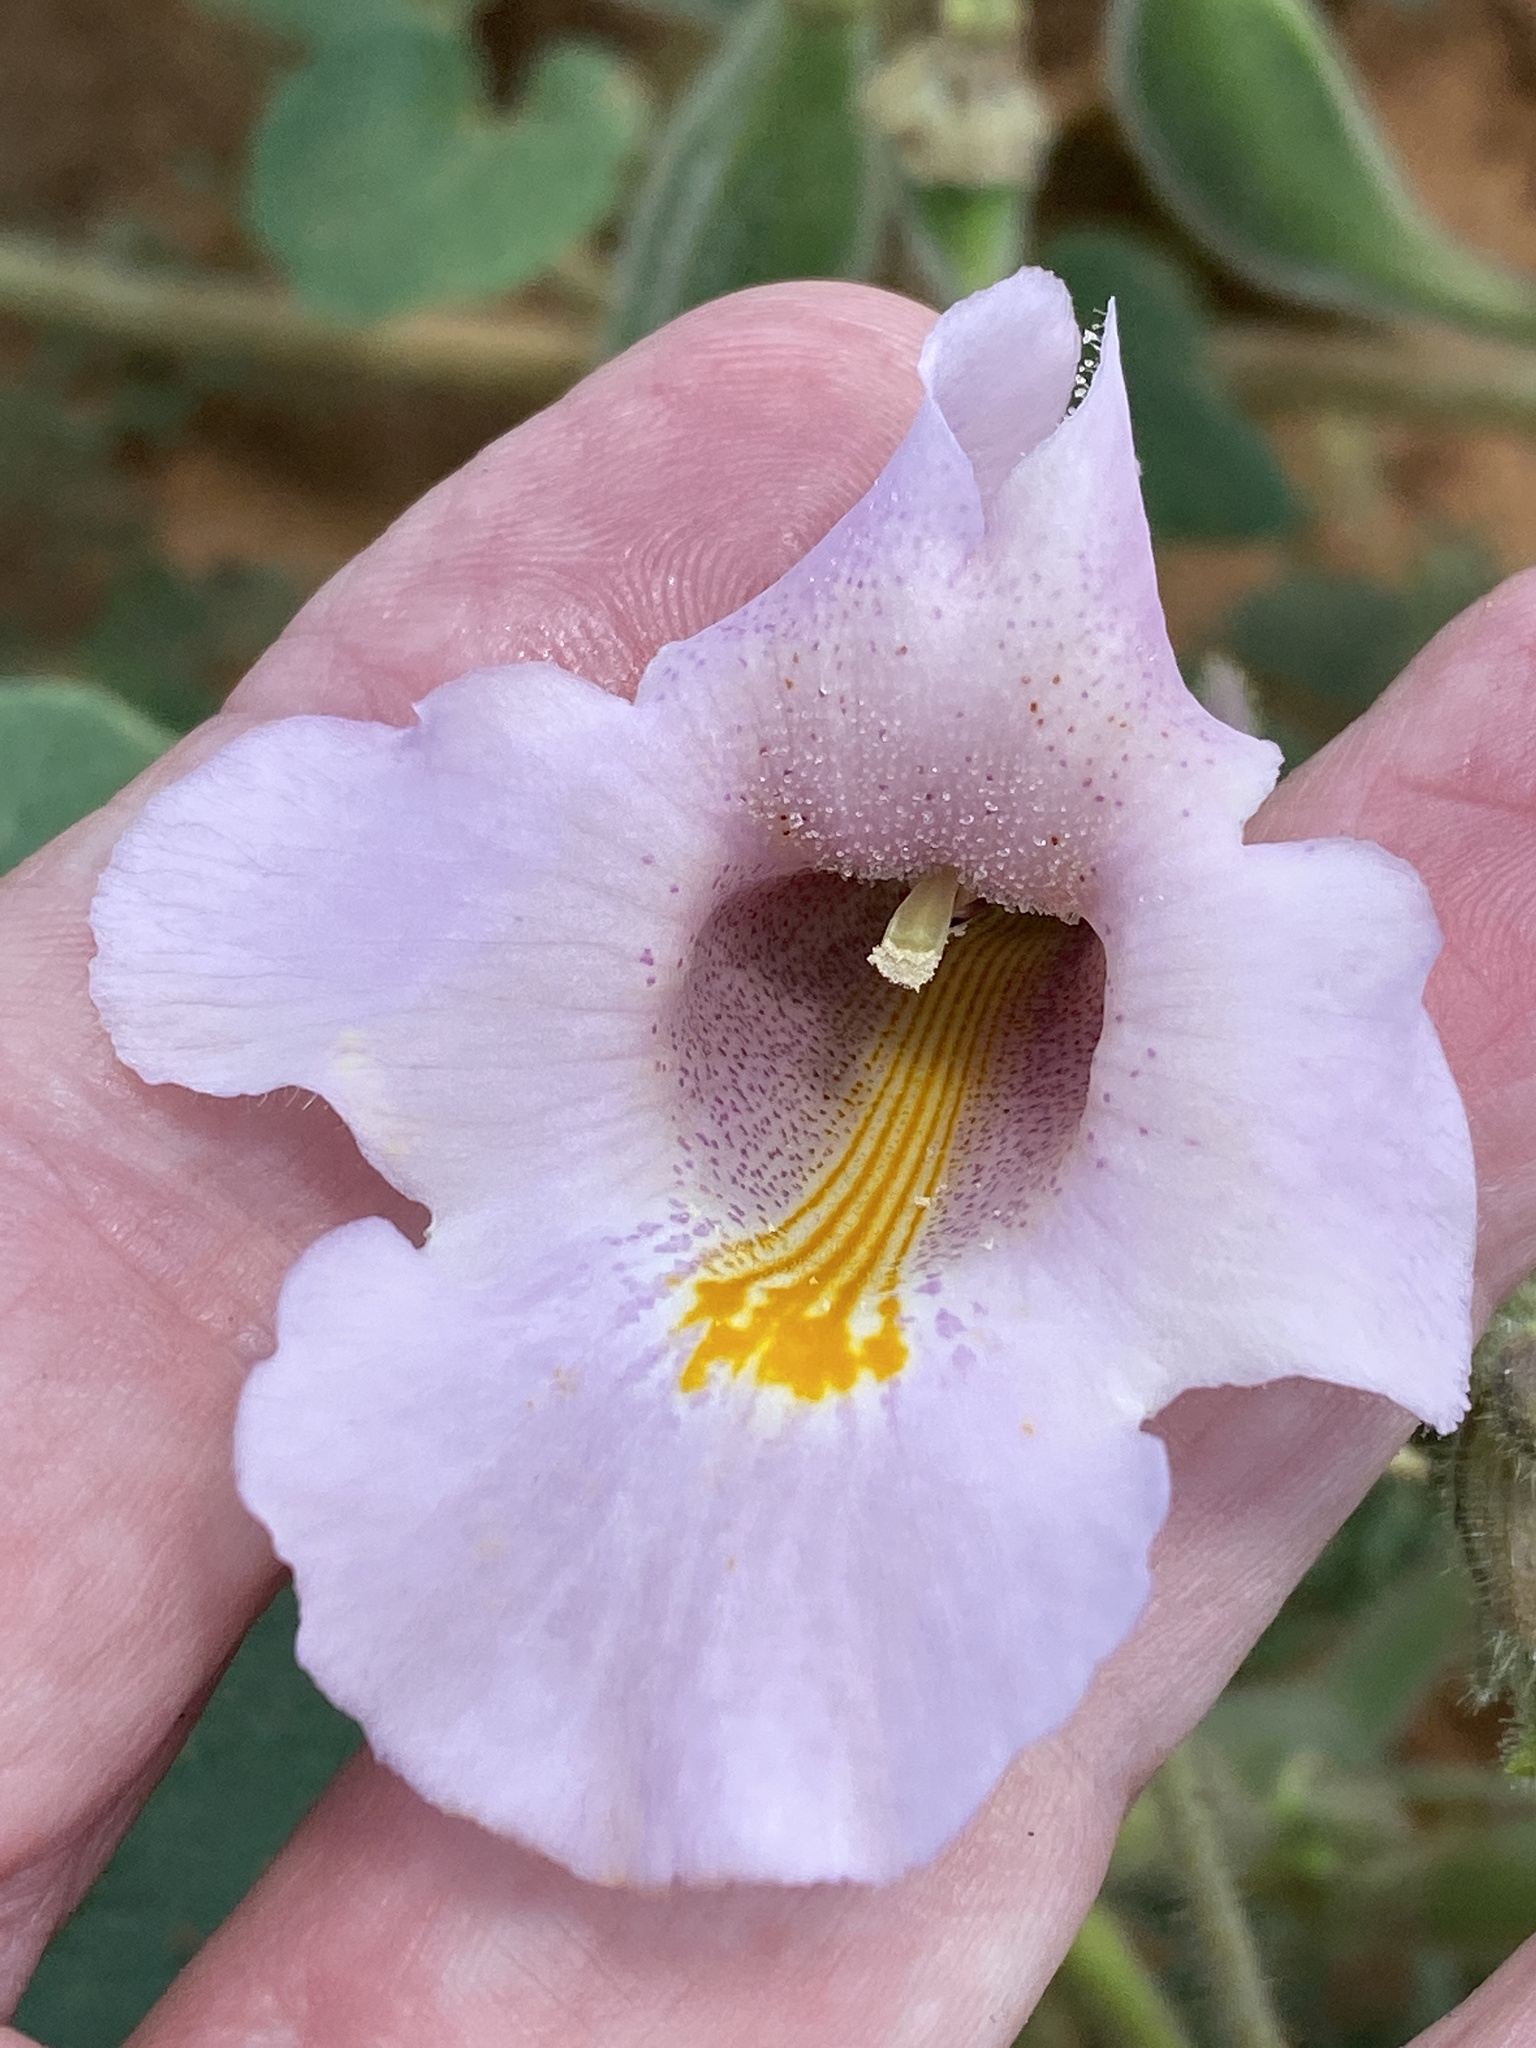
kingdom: Plantae
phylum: Tracheophyta
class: Magnoliopsida
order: Lamiales
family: Martyniaceae
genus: Proboscidea
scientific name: Proboscidea louisianica
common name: Elephant tusks
